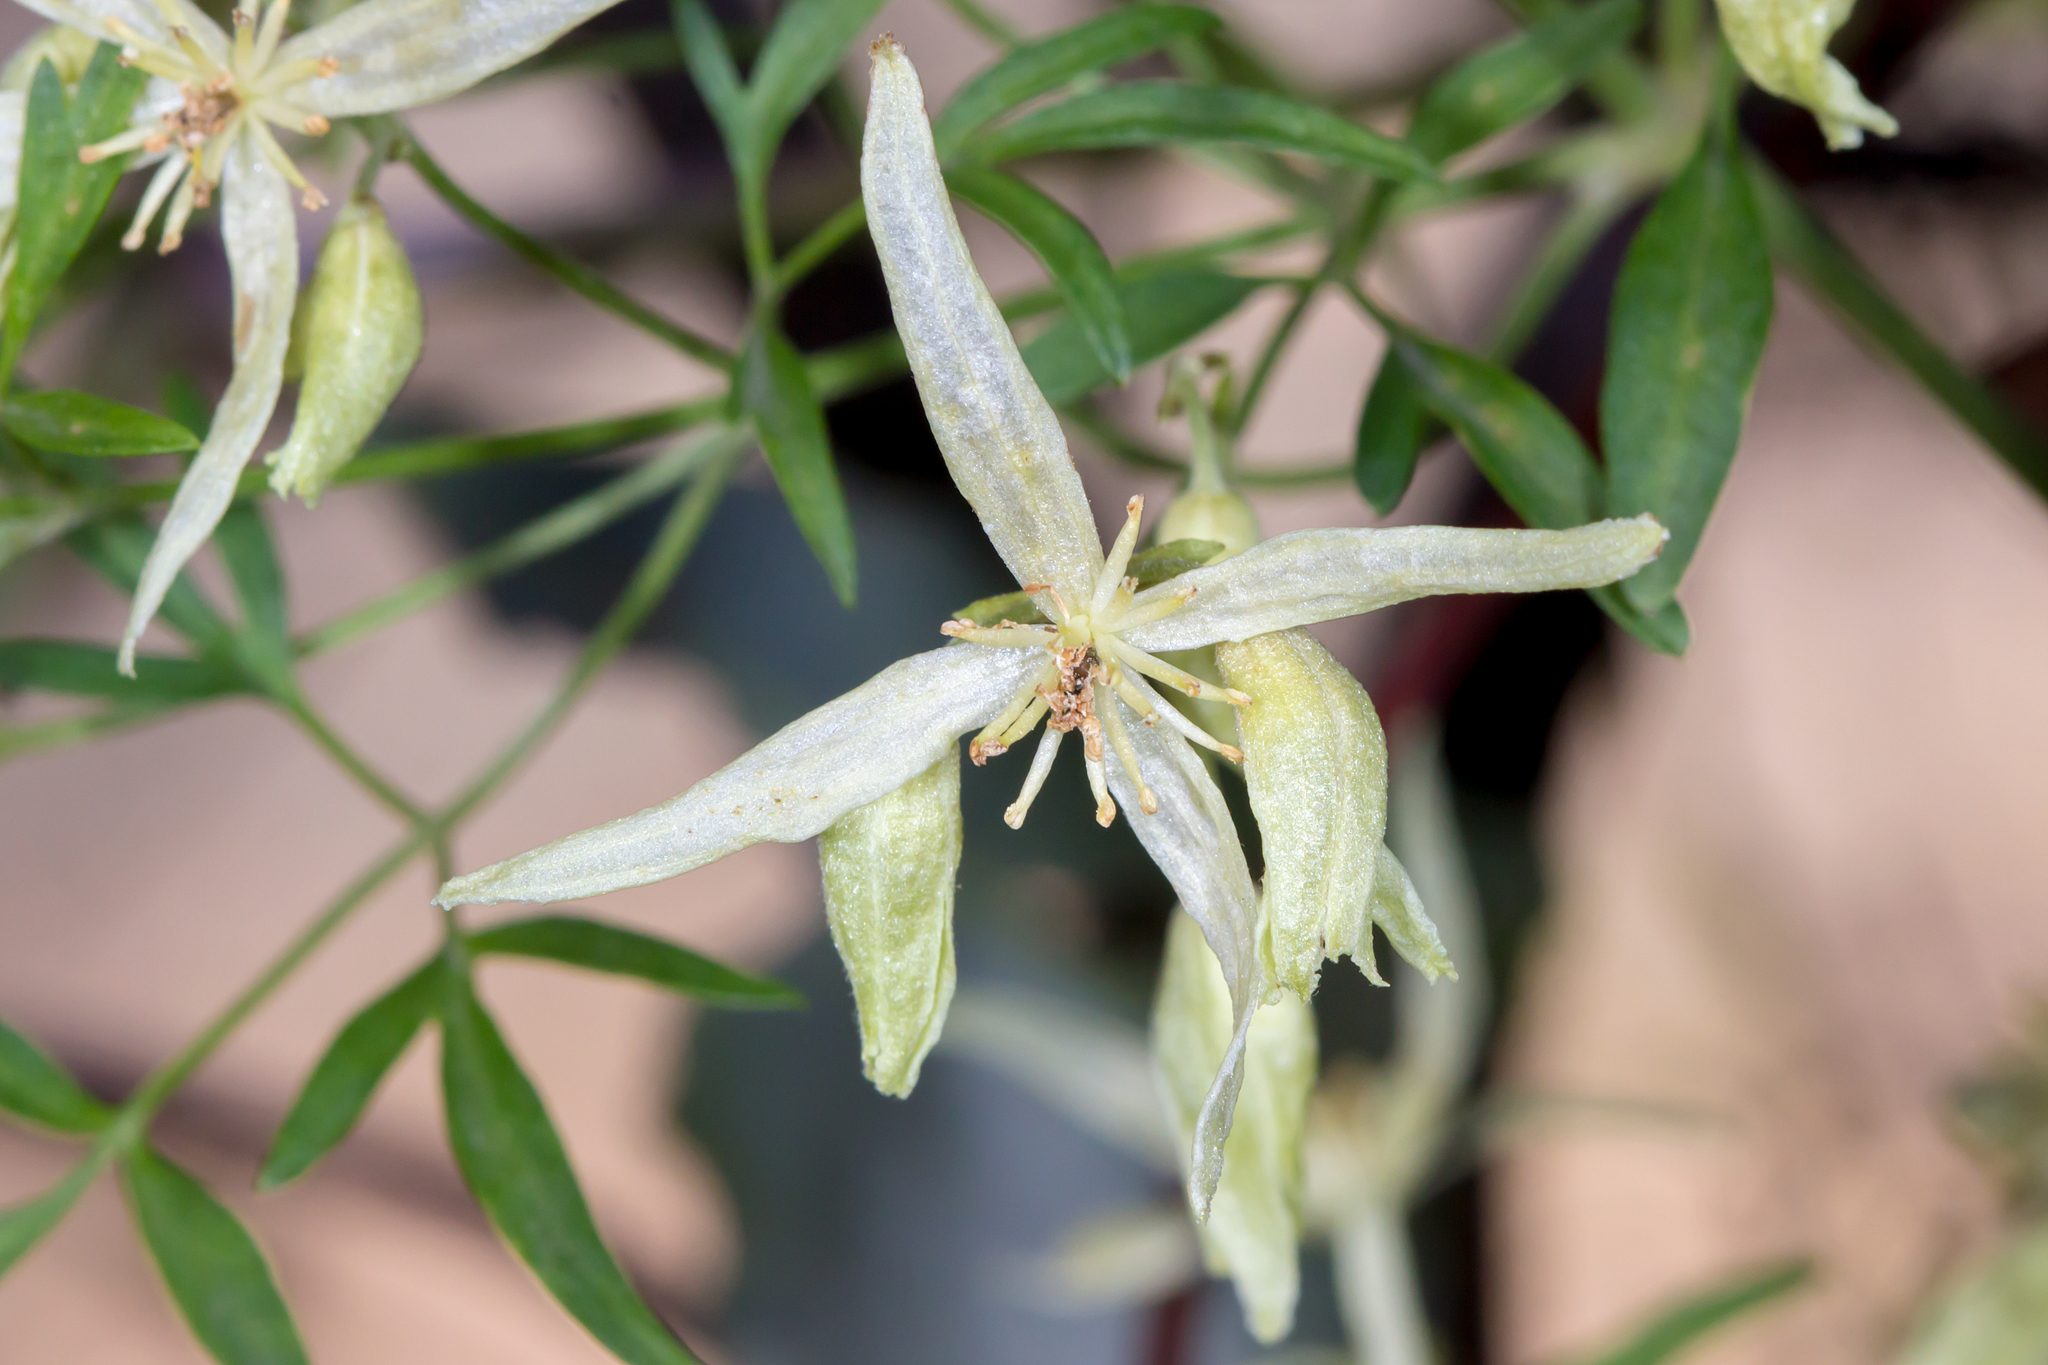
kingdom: Plantae
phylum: Tracheophyta
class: Magnoliopsida
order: Ranunculales
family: Ranunculaceae
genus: Clematis
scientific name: Clematis microphylla
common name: Headachevine
